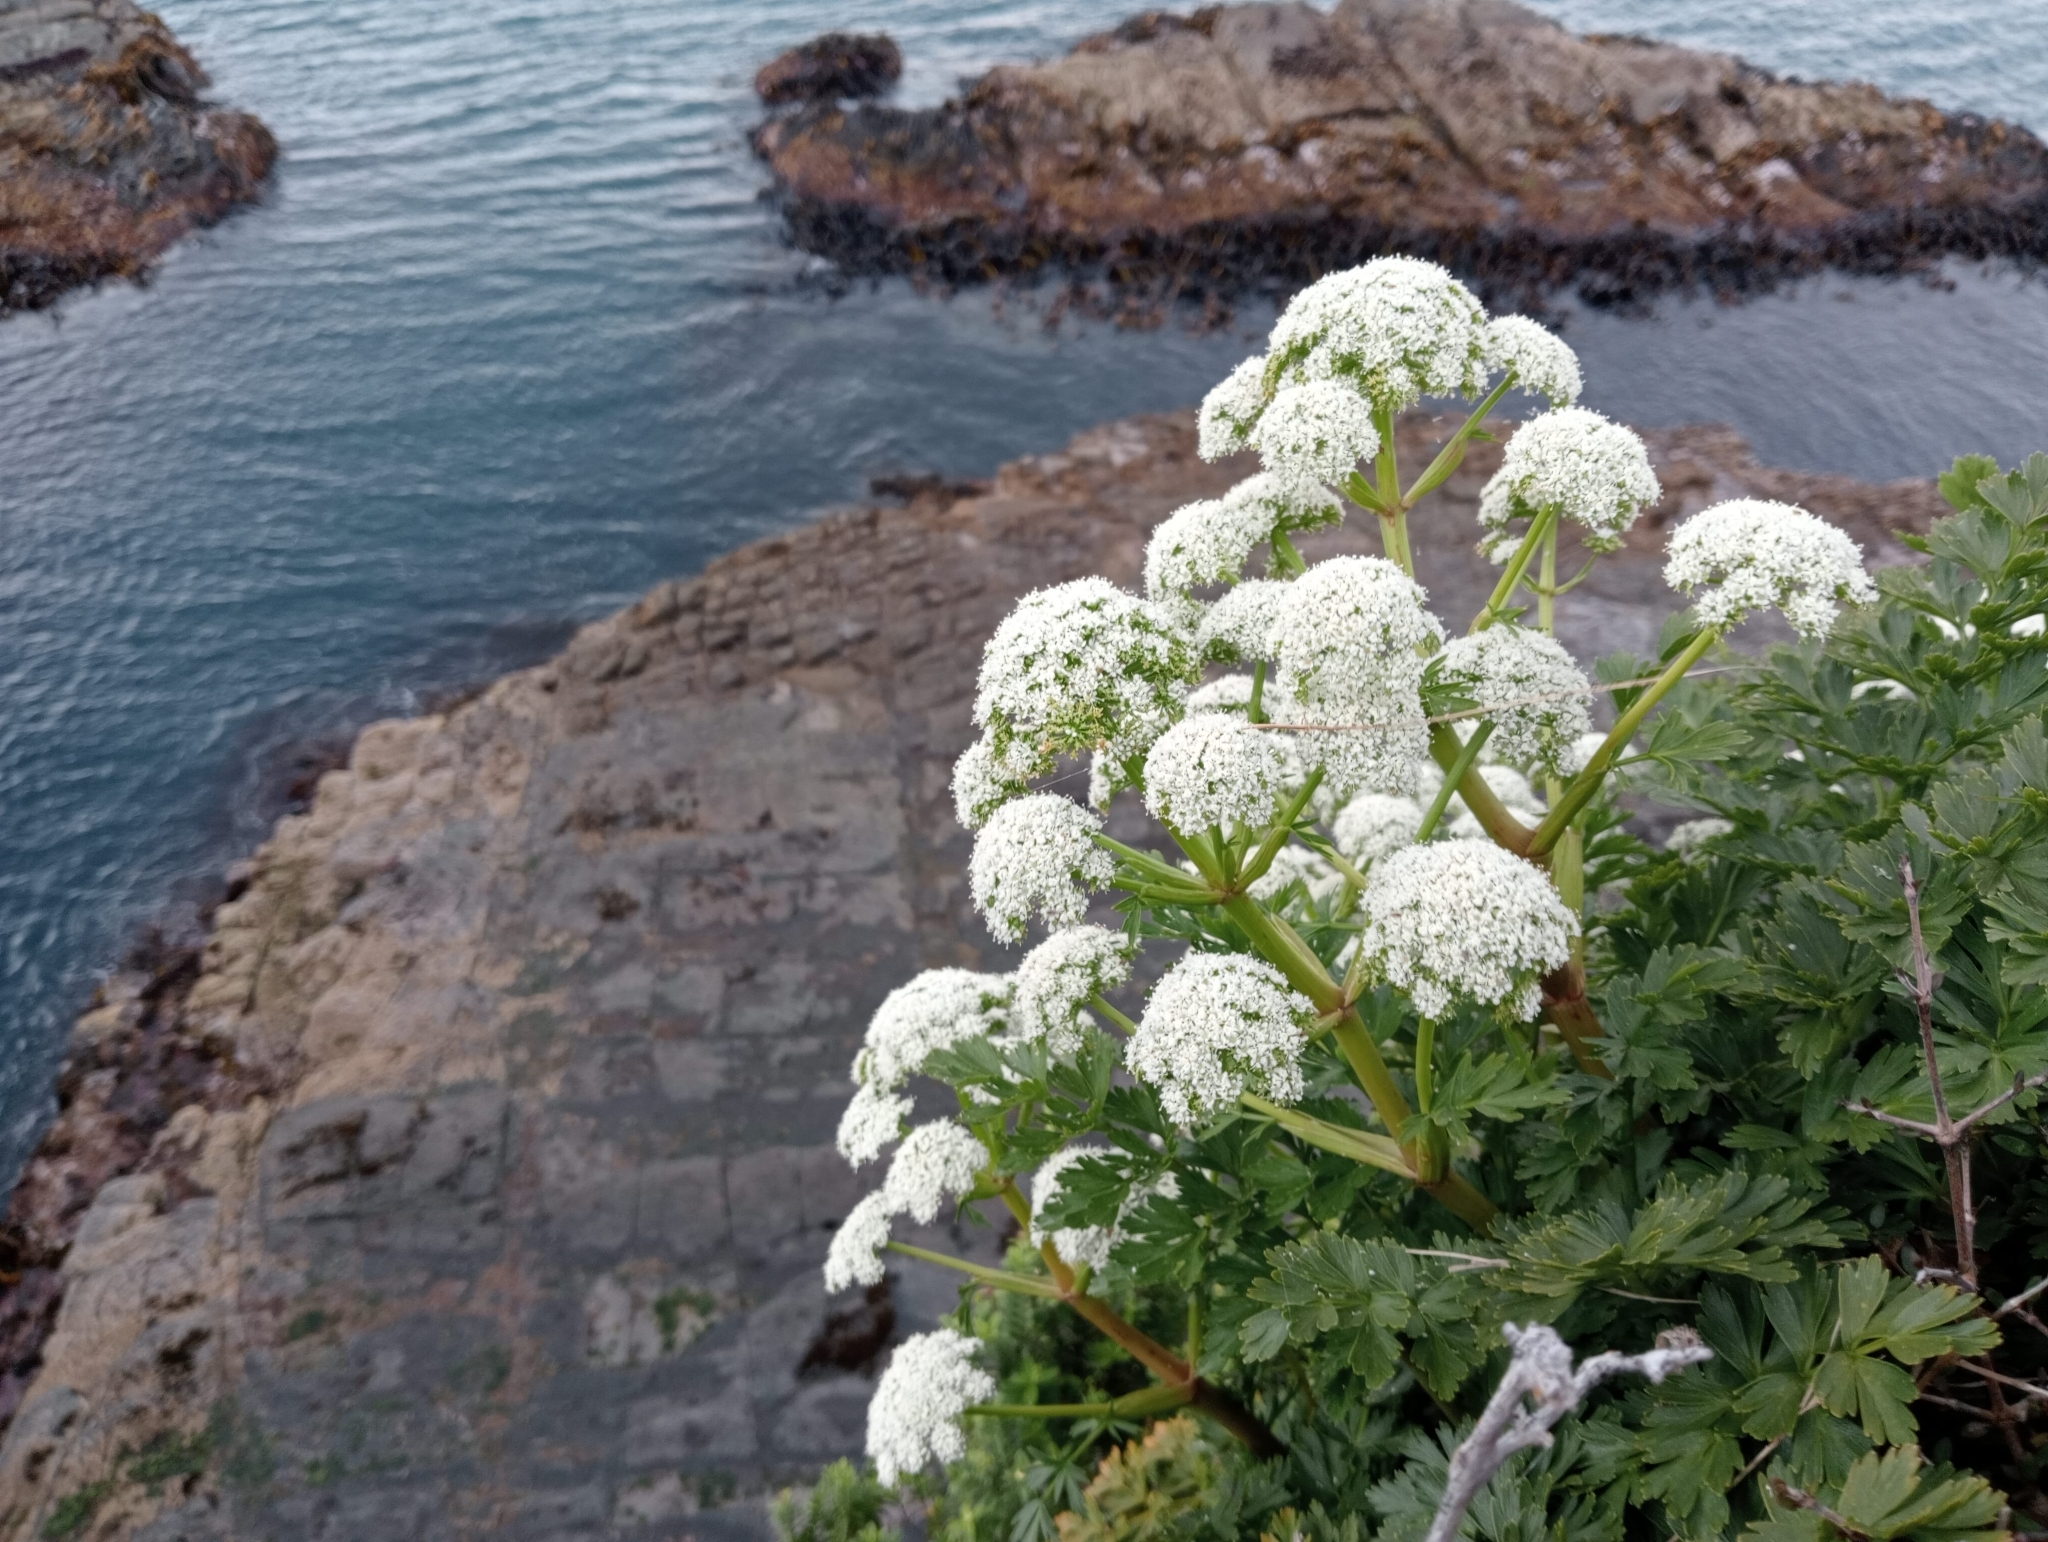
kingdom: Plantae
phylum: Tracheophyta
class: Magnoliopsida
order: Apiales
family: Apiaceae
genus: Anisotome
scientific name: Anisotome lyallii
